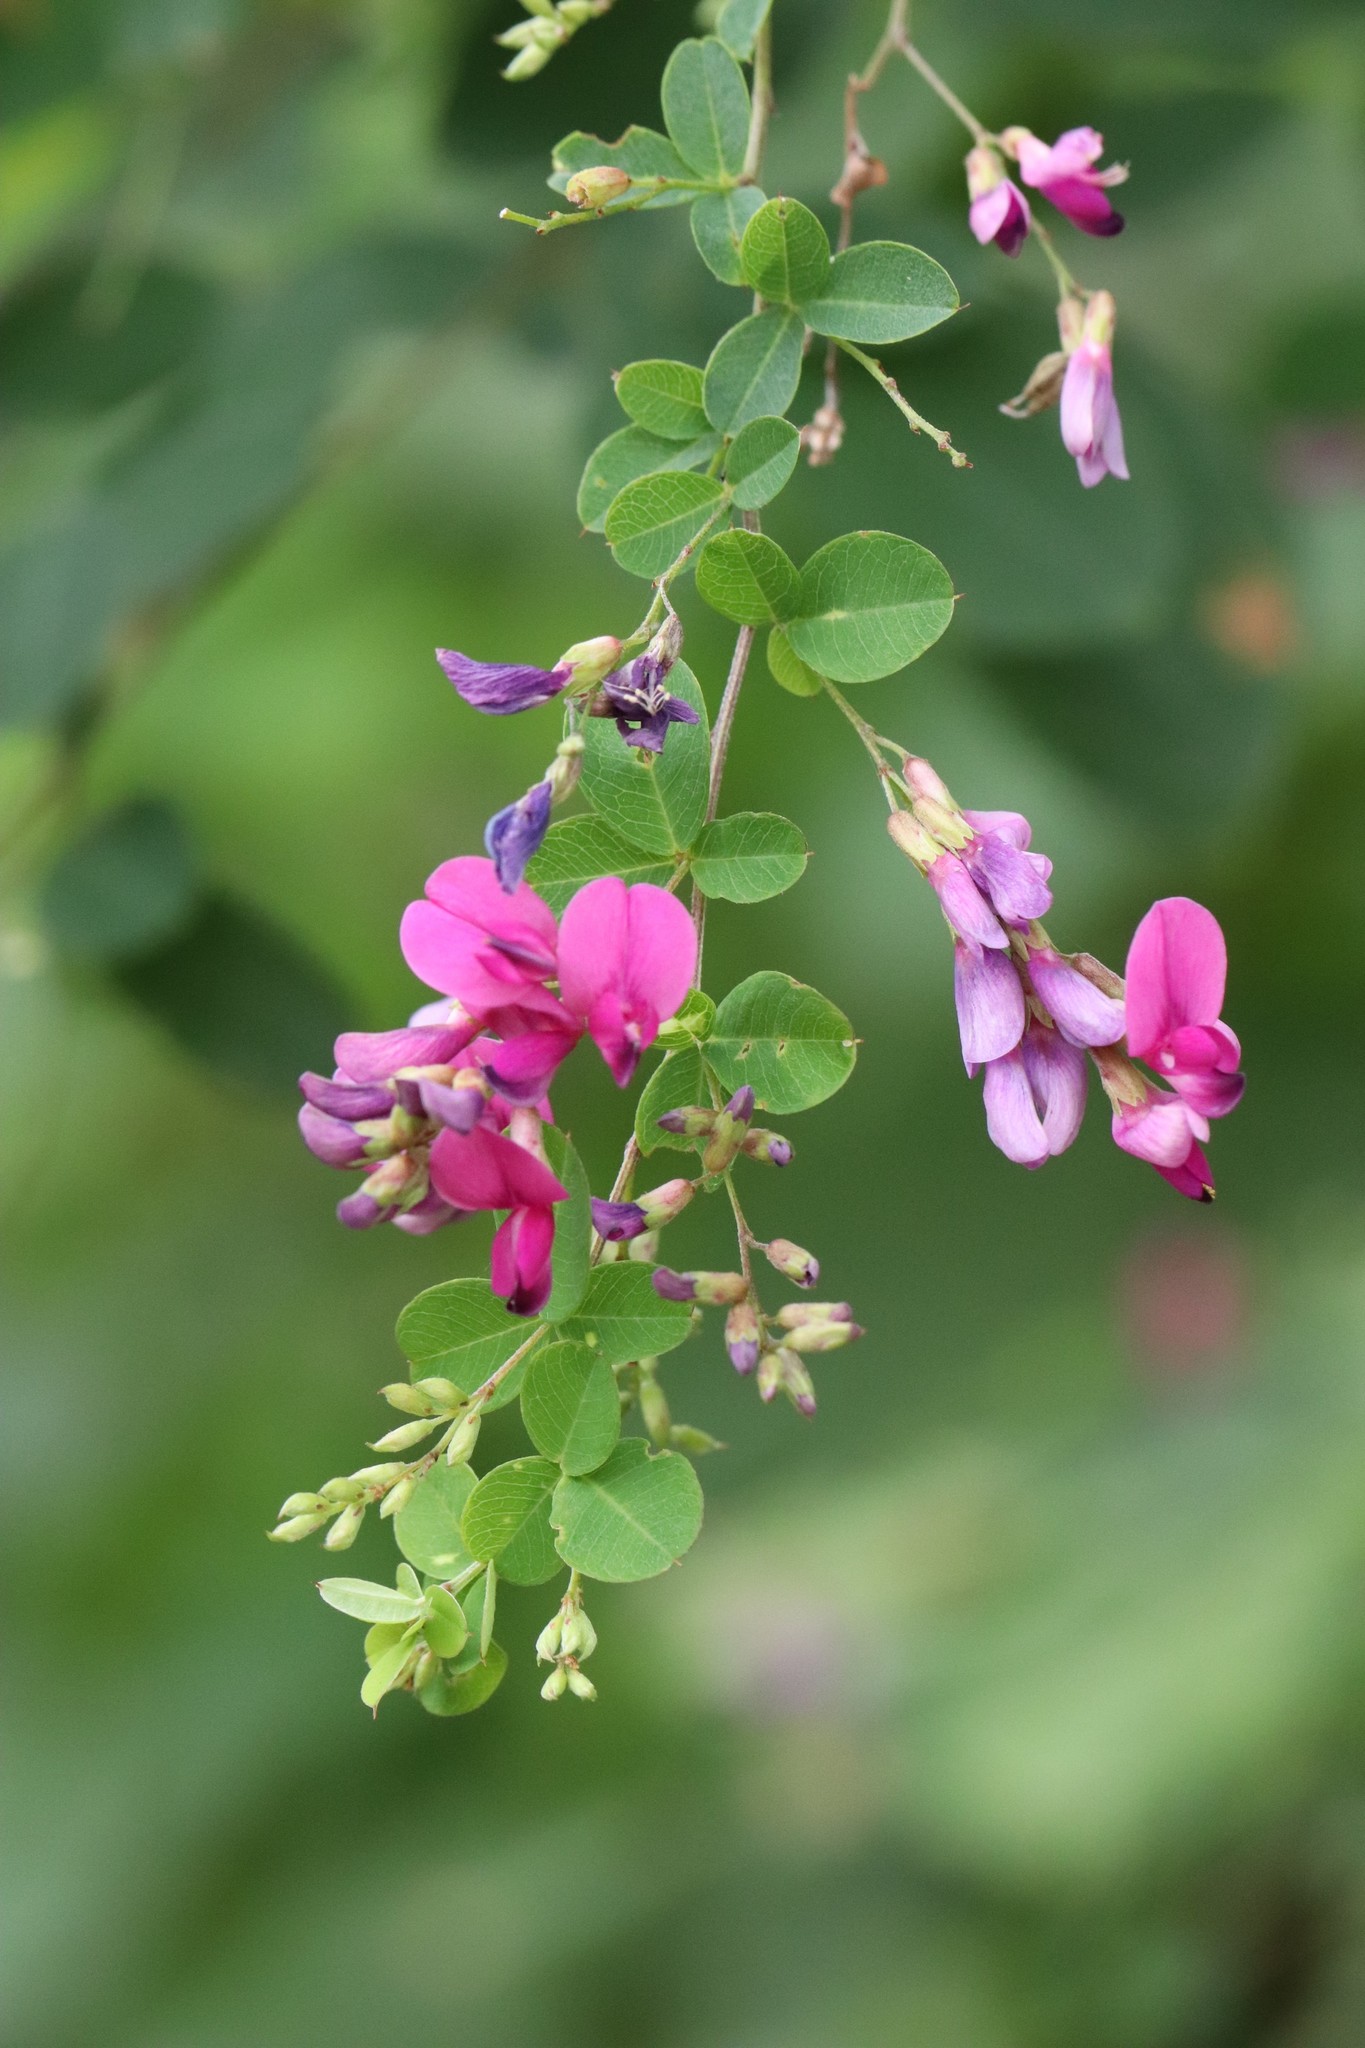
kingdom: Plantae
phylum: Tracheophyta
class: Magnoliopsida
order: Fabales
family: Fabaceae
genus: Lespedeza
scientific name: Lespedeza bicolor
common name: Shrub lespedeza
